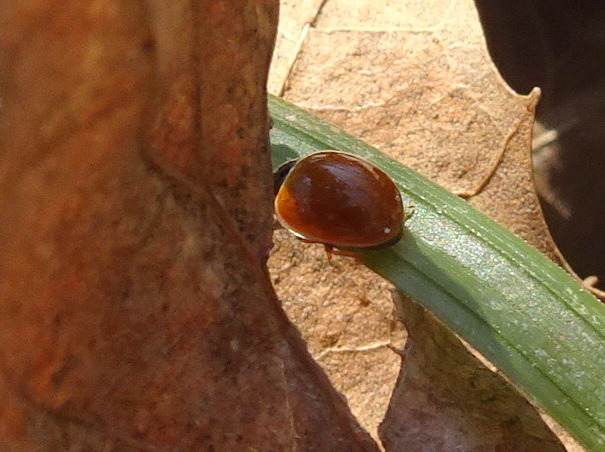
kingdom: Animalia
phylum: Arthropoda
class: Insecta
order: Coleoptera
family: Coccinellidae
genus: Cycloneda
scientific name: Cycloneda munda
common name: Polished lady beetle
